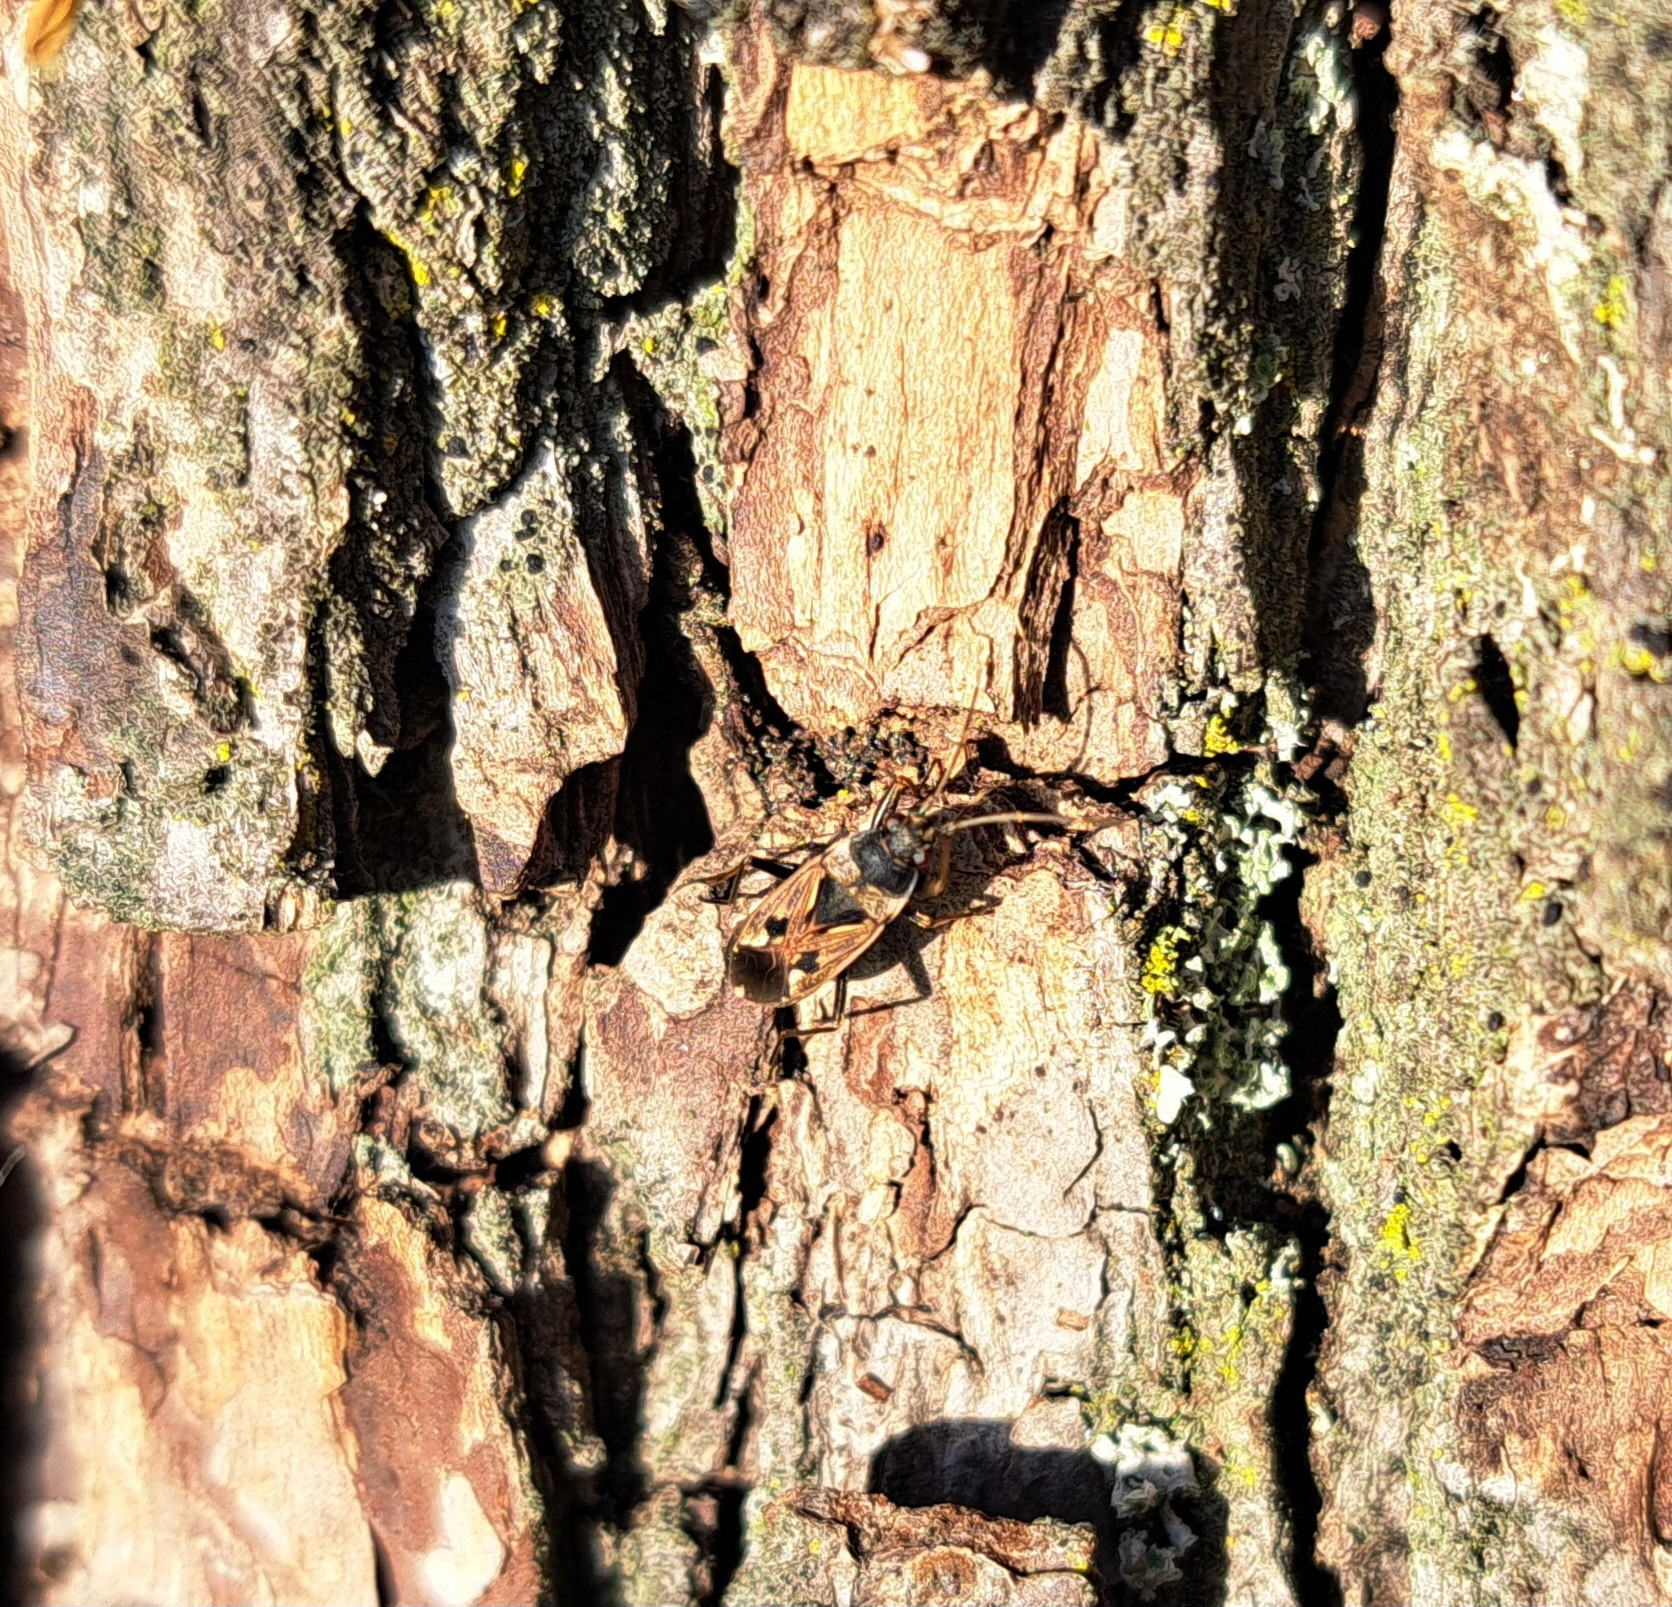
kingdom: Animalia
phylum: Arthropoda
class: Insecta
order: Hemiptera
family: Rhyparochromidae
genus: Rhyparochromus
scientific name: Rhyparochromus vulgaris
